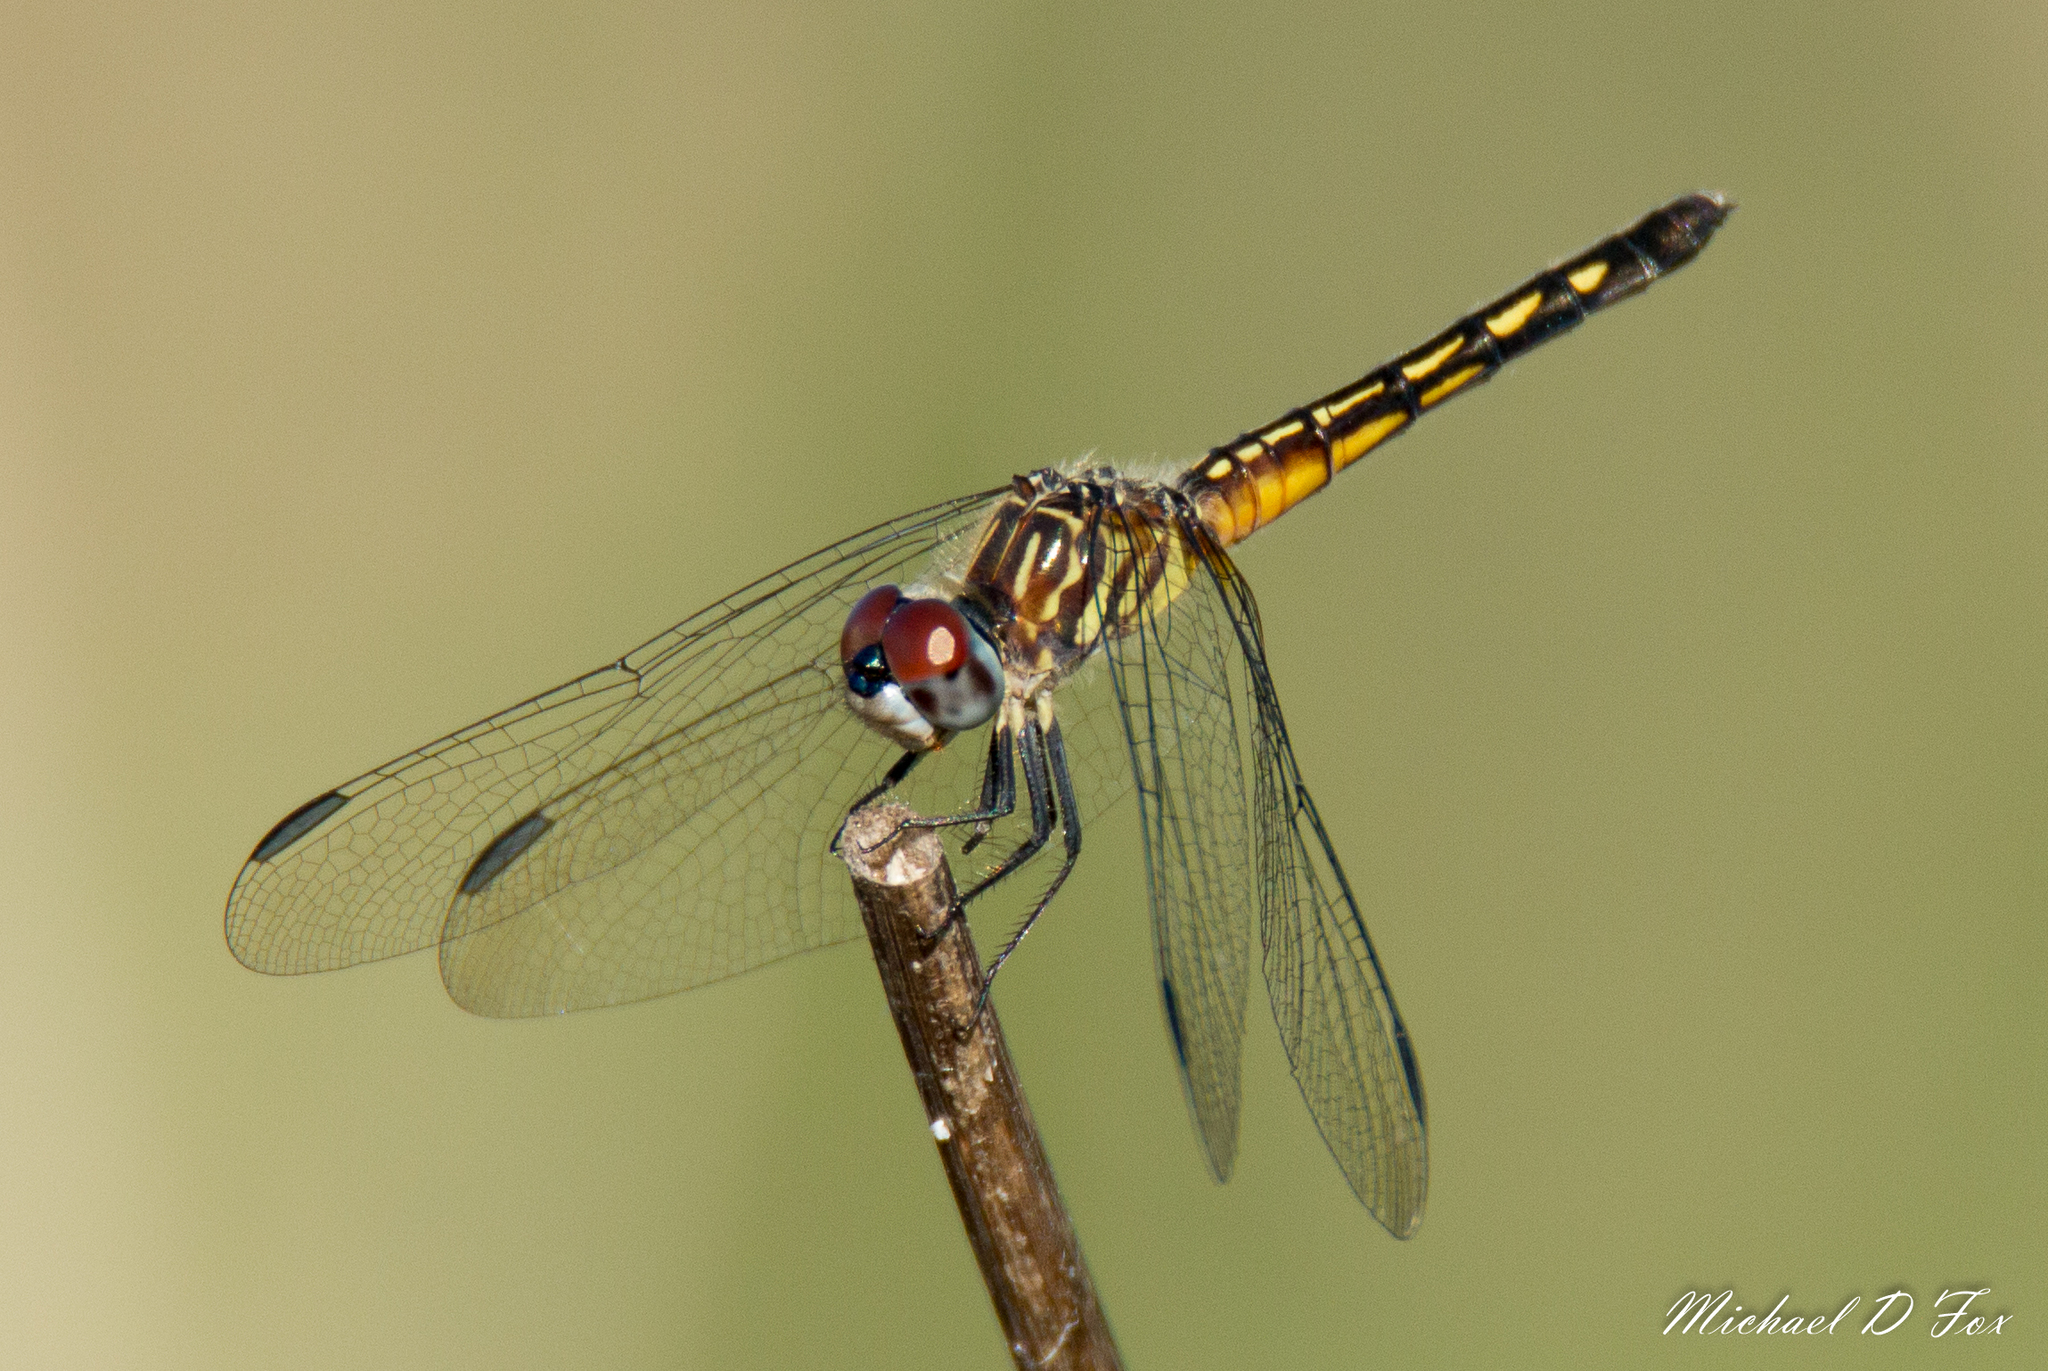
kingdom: Animalia
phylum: Arthropoda
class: Insecta
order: Odonata
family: Libellulidae
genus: Pachydiplax
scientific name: Pachydiplax longipennis
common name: Blue dasher
